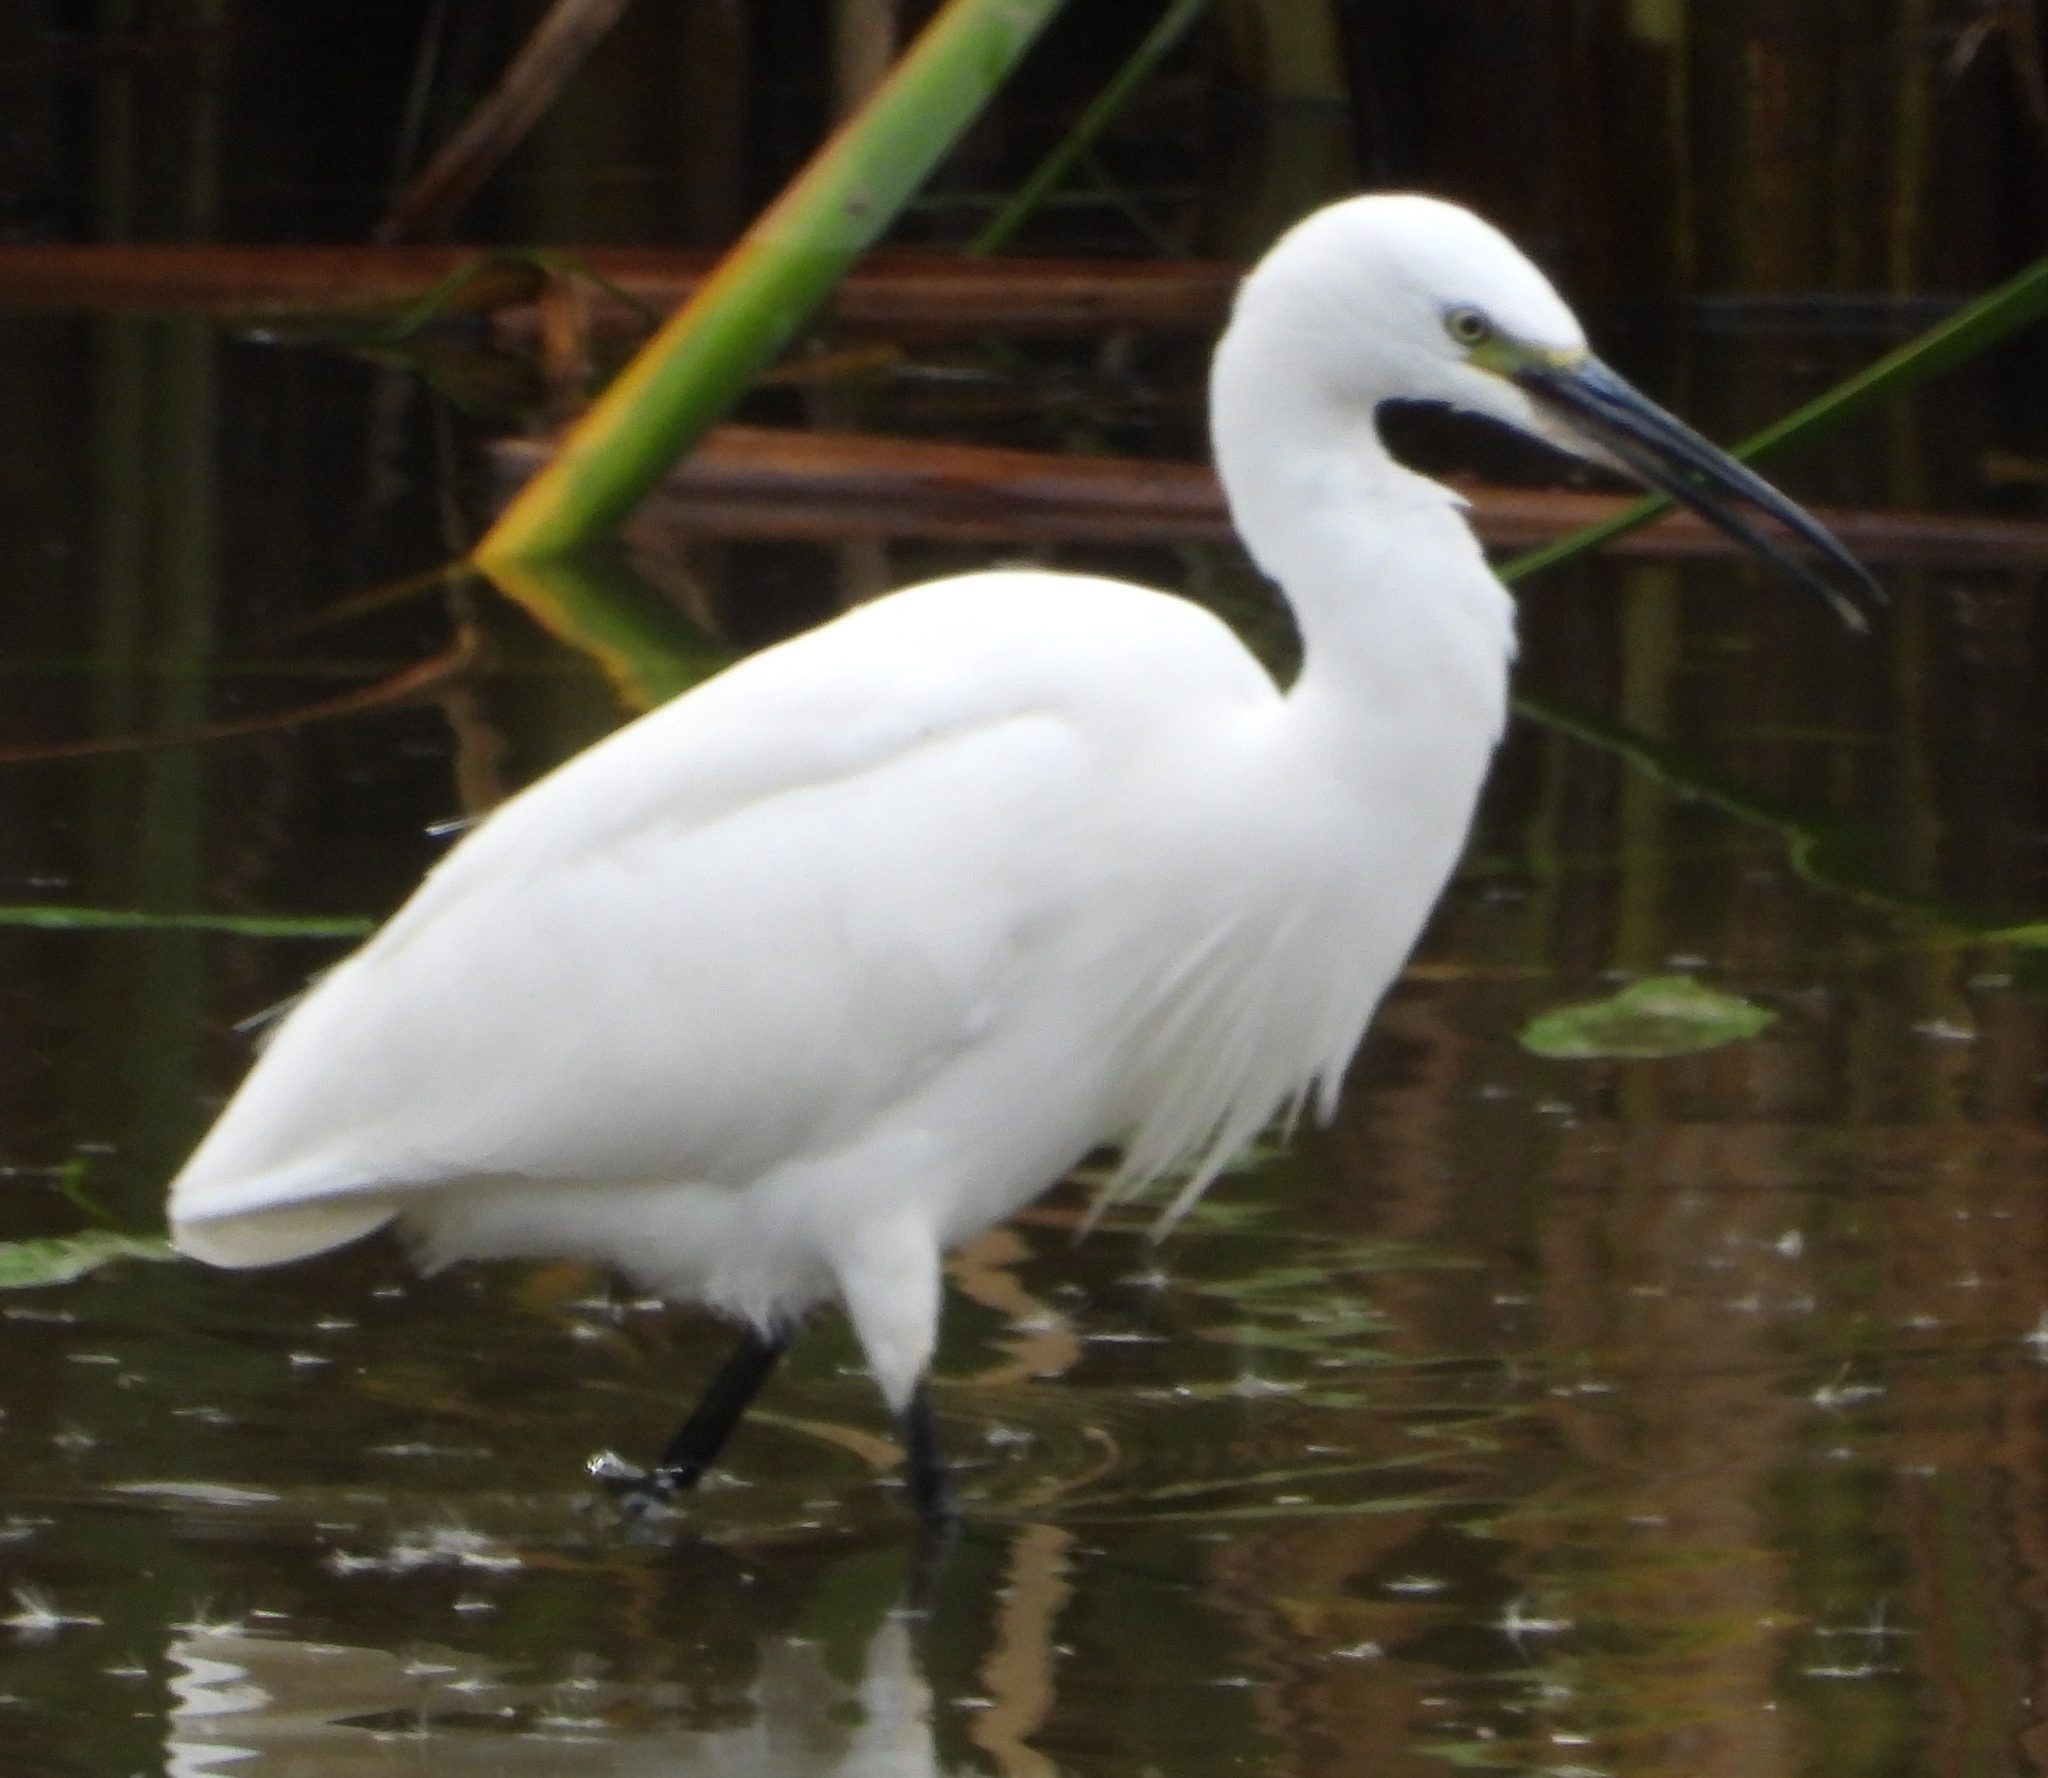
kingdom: Animalia
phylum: Chordata
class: Aves
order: Pelecaniformes
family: Ardeidae
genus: Egretta
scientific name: Egretta garzetta
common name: Little egret
